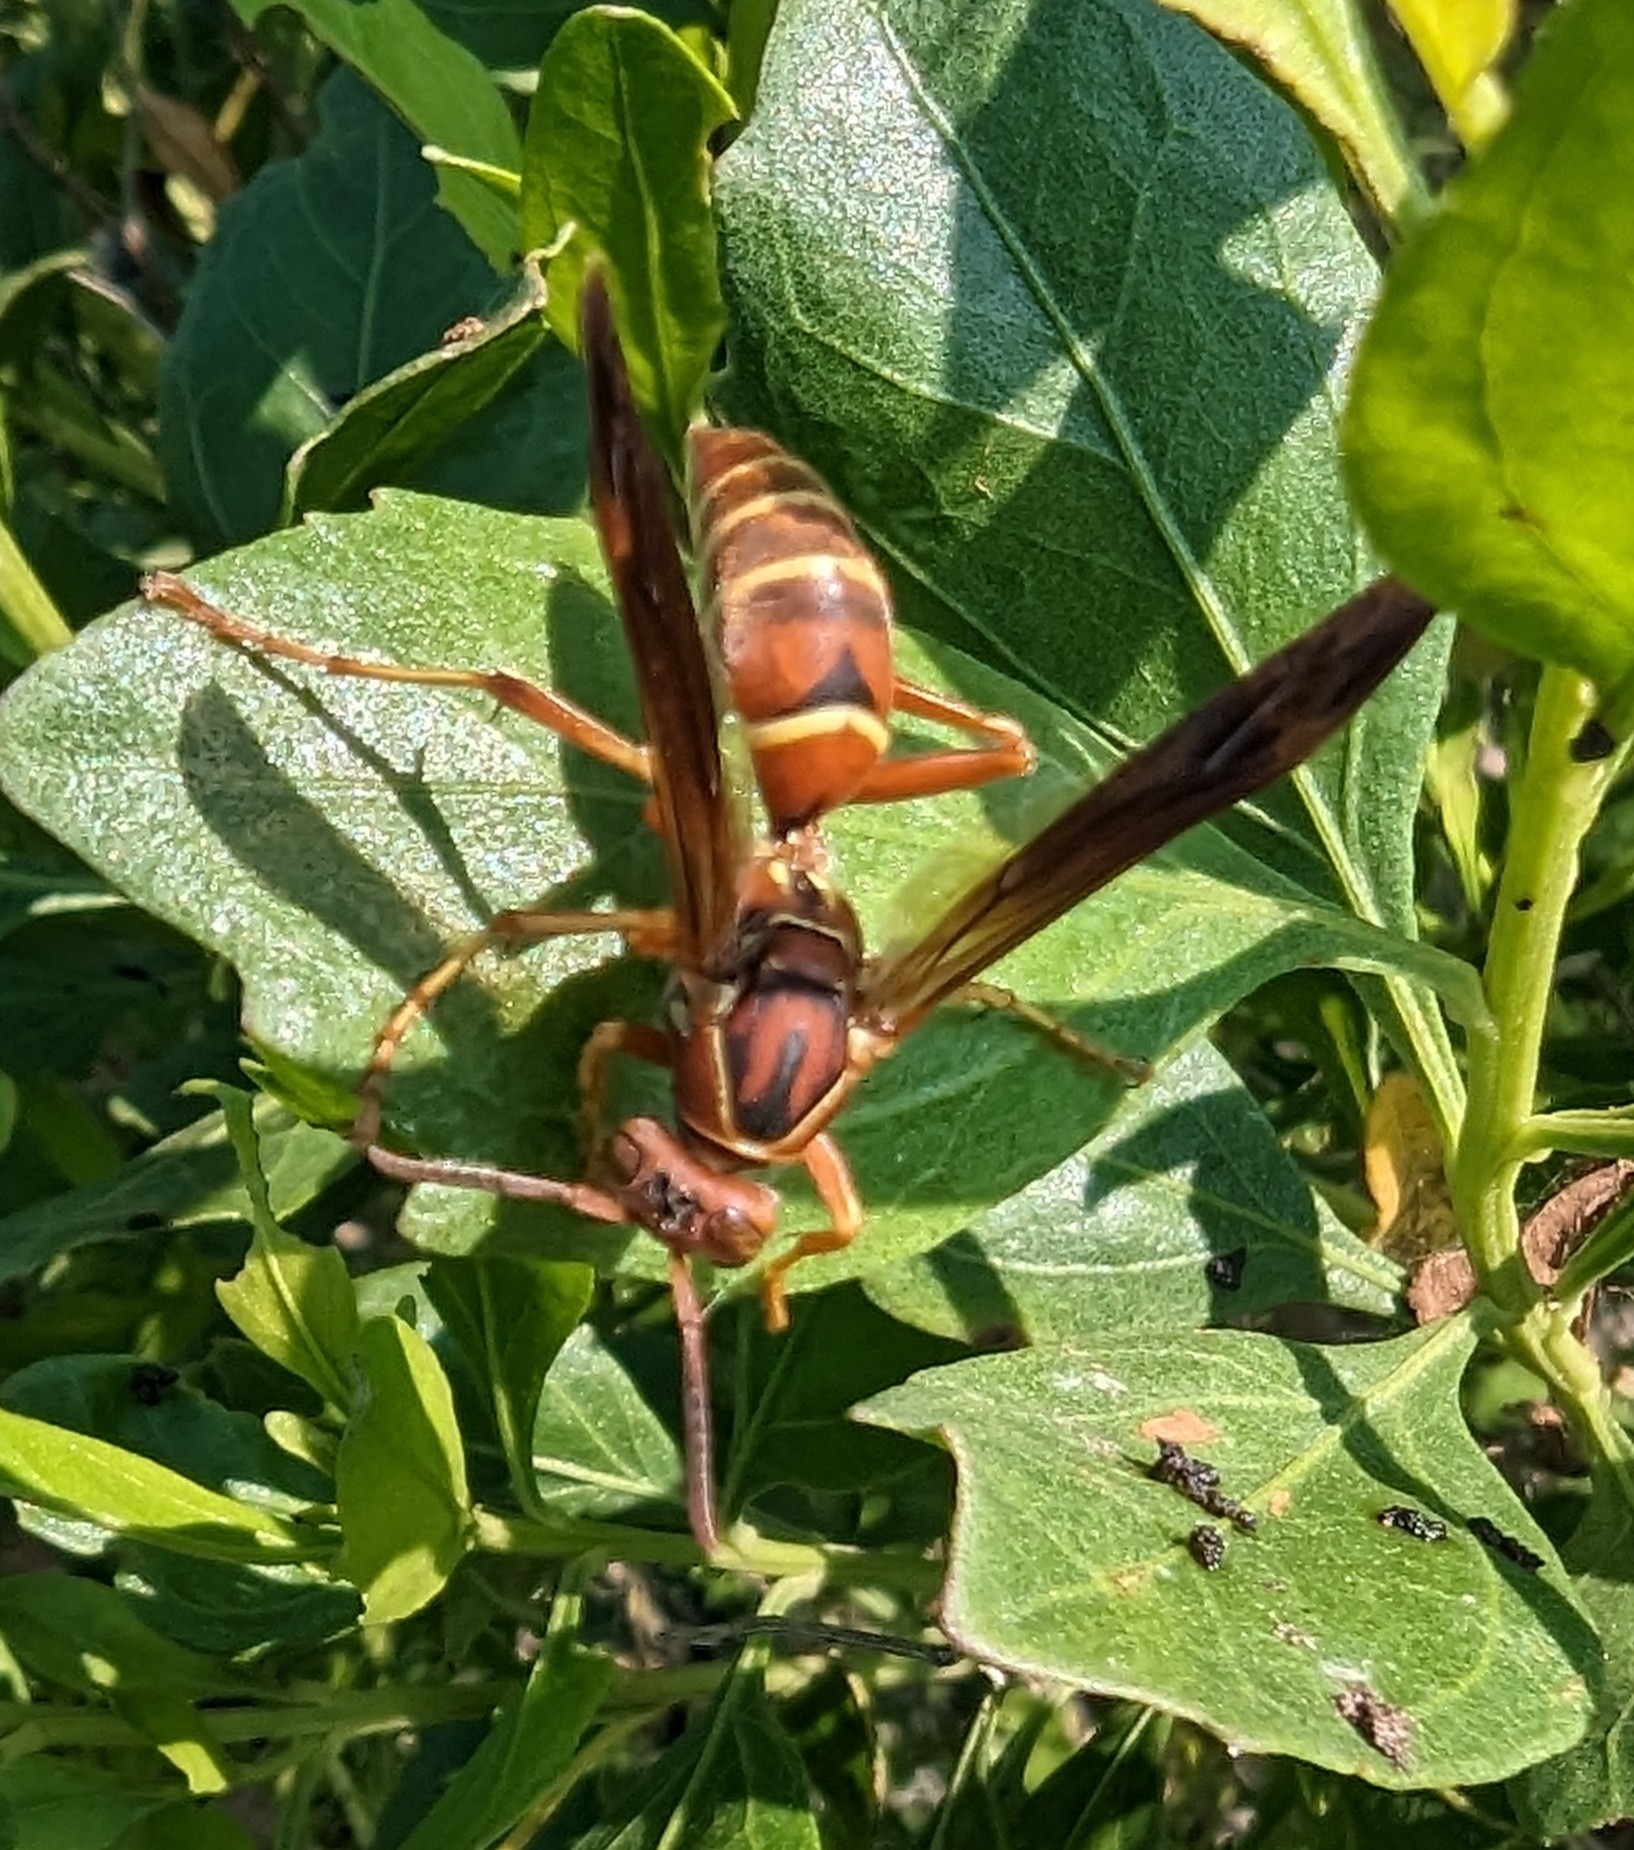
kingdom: Animalia
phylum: Arthropoda
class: Insecta
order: Hymenoptera
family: Eumenidae
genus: Polistes
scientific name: Polistes bellicosus
